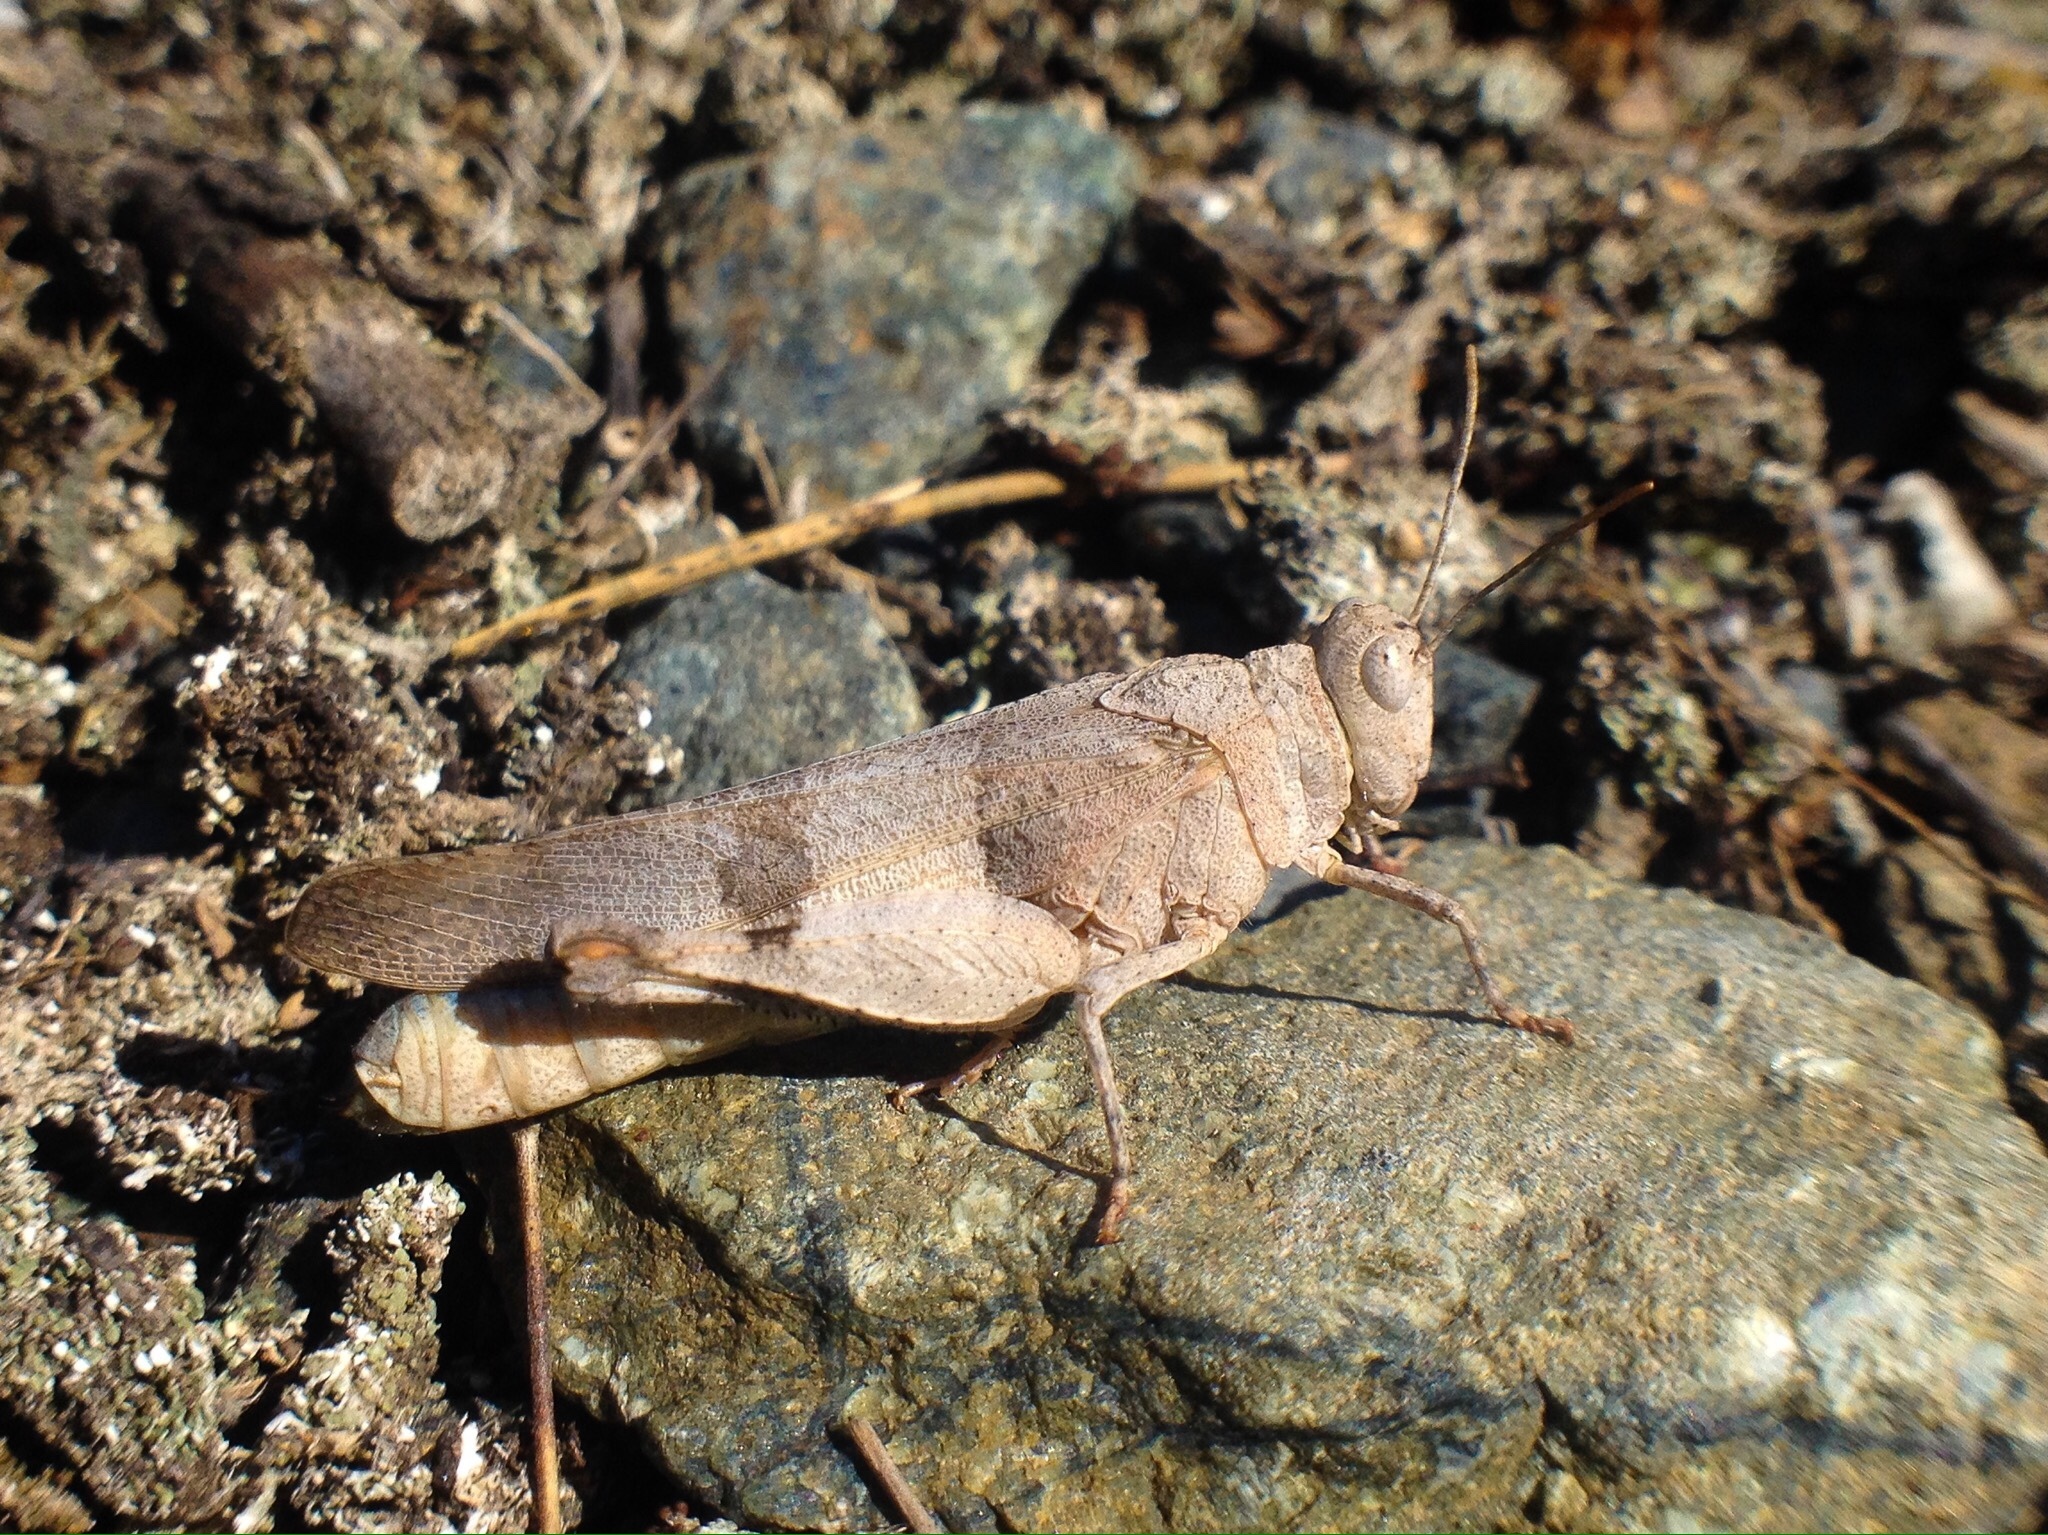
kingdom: Animalia
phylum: Arthropoda
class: Insecta
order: Orthoptera
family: Acrididae
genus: Oedipoda
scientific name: Oedipoda caerulescens
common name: Blue-winged grasshopper
